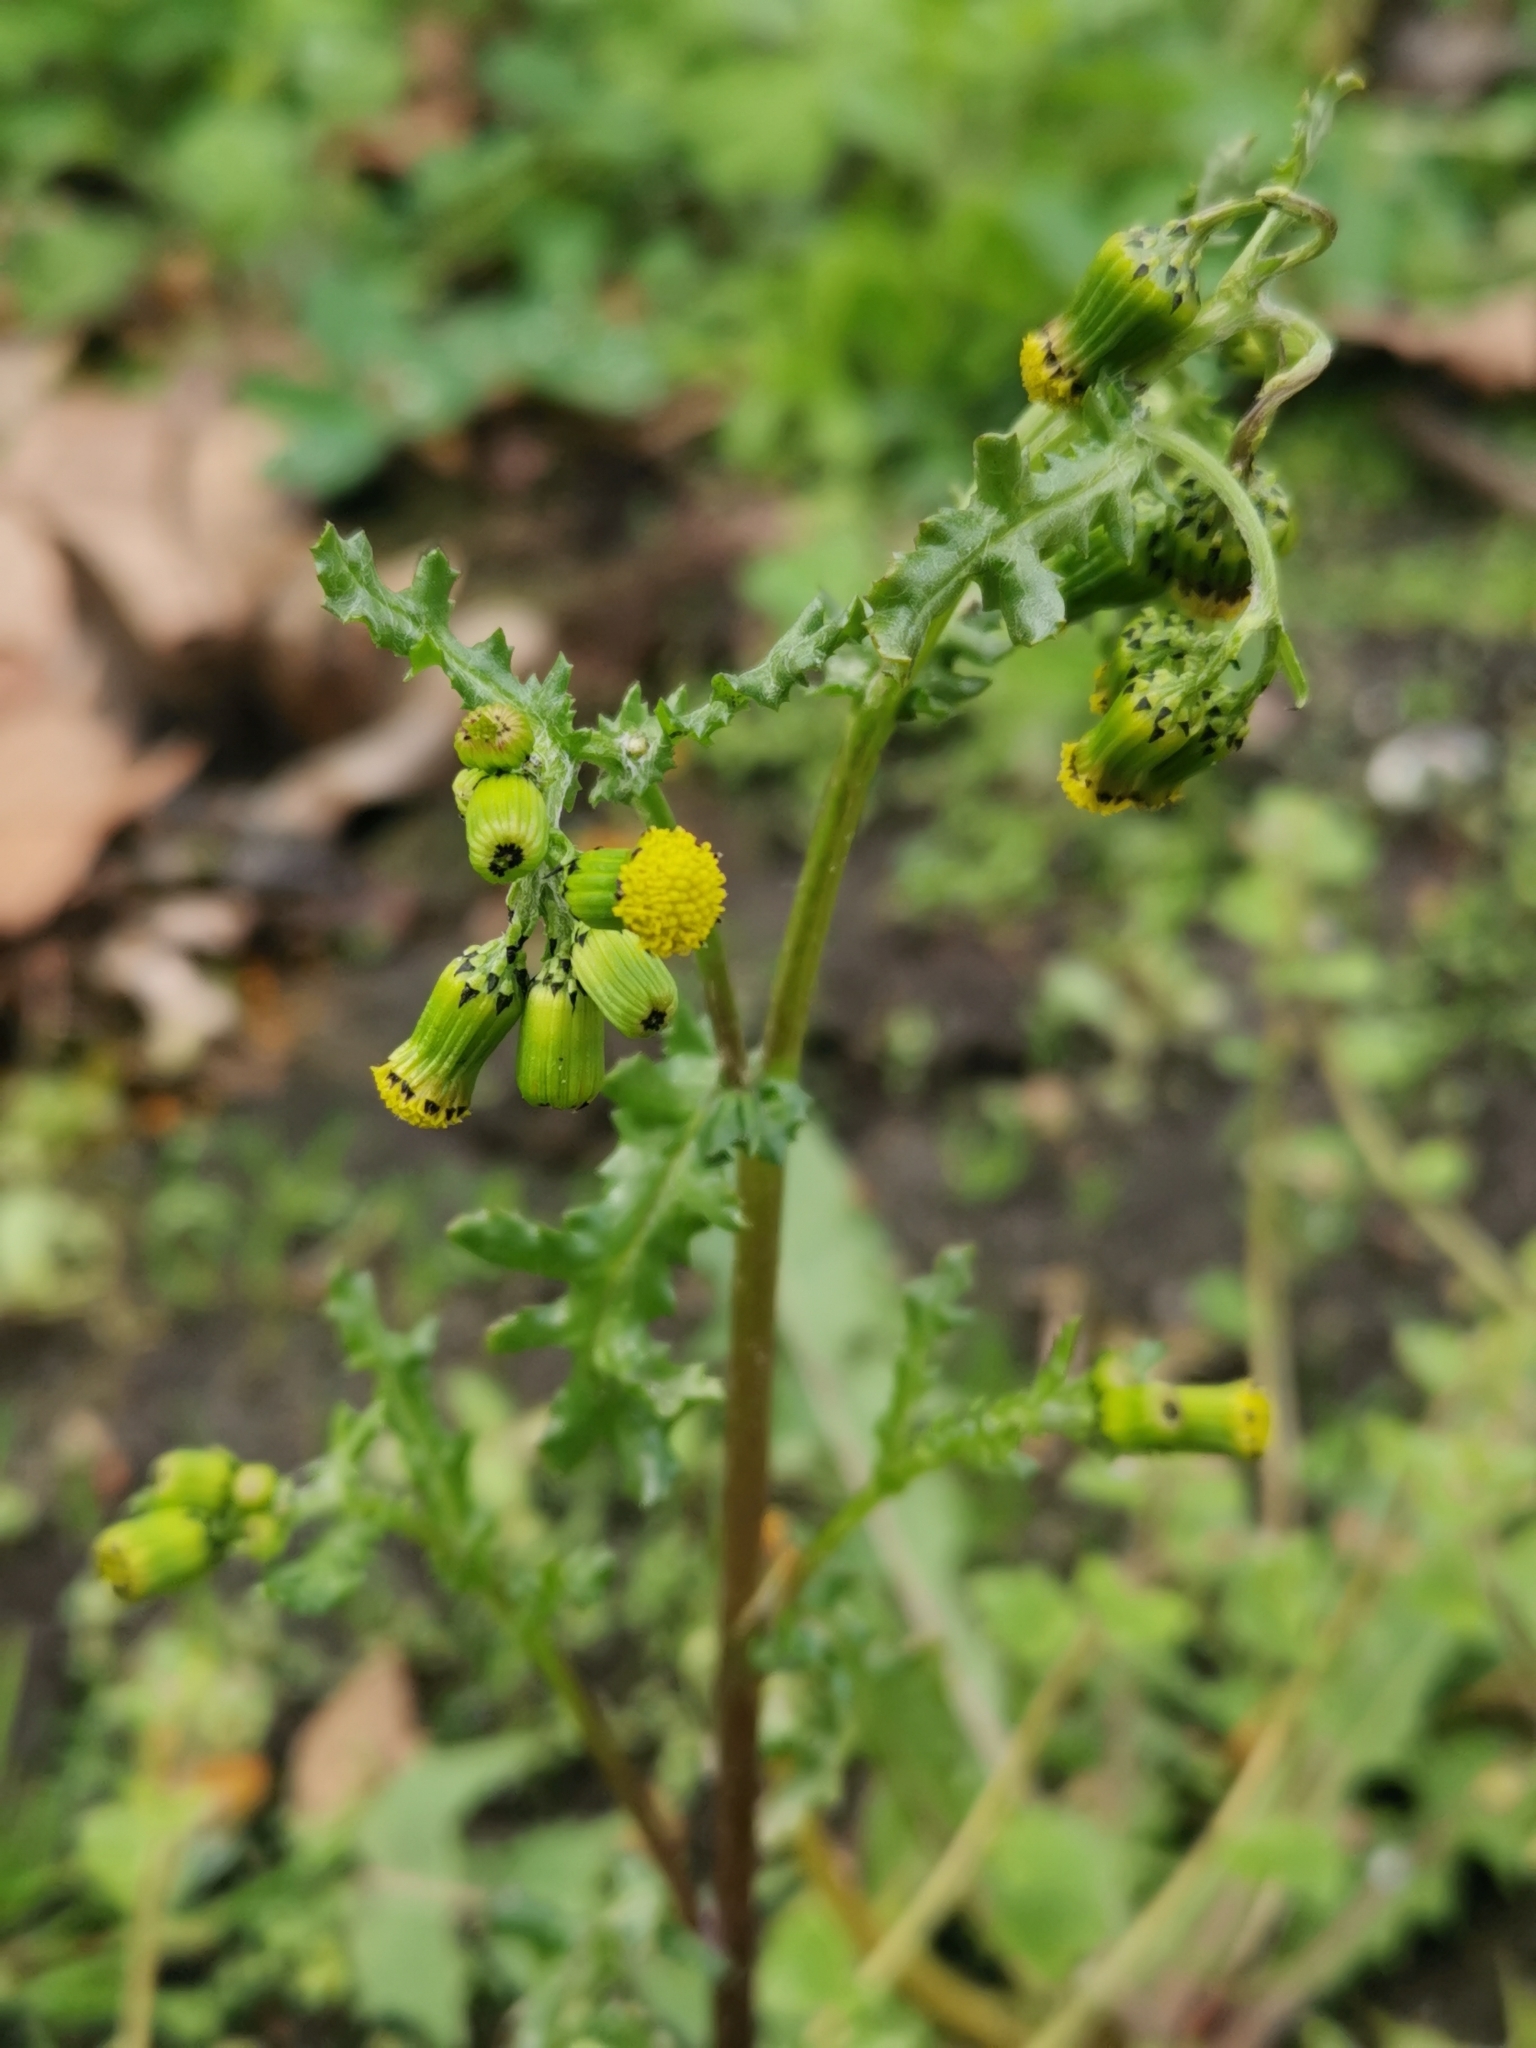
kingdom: Plantae
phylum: Tracheophyta
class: Magnoliopsida
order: Asterales
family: Asteraceae
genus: Senecio
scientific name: Senecio vulgaris
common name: Old-man-in-the-spring
